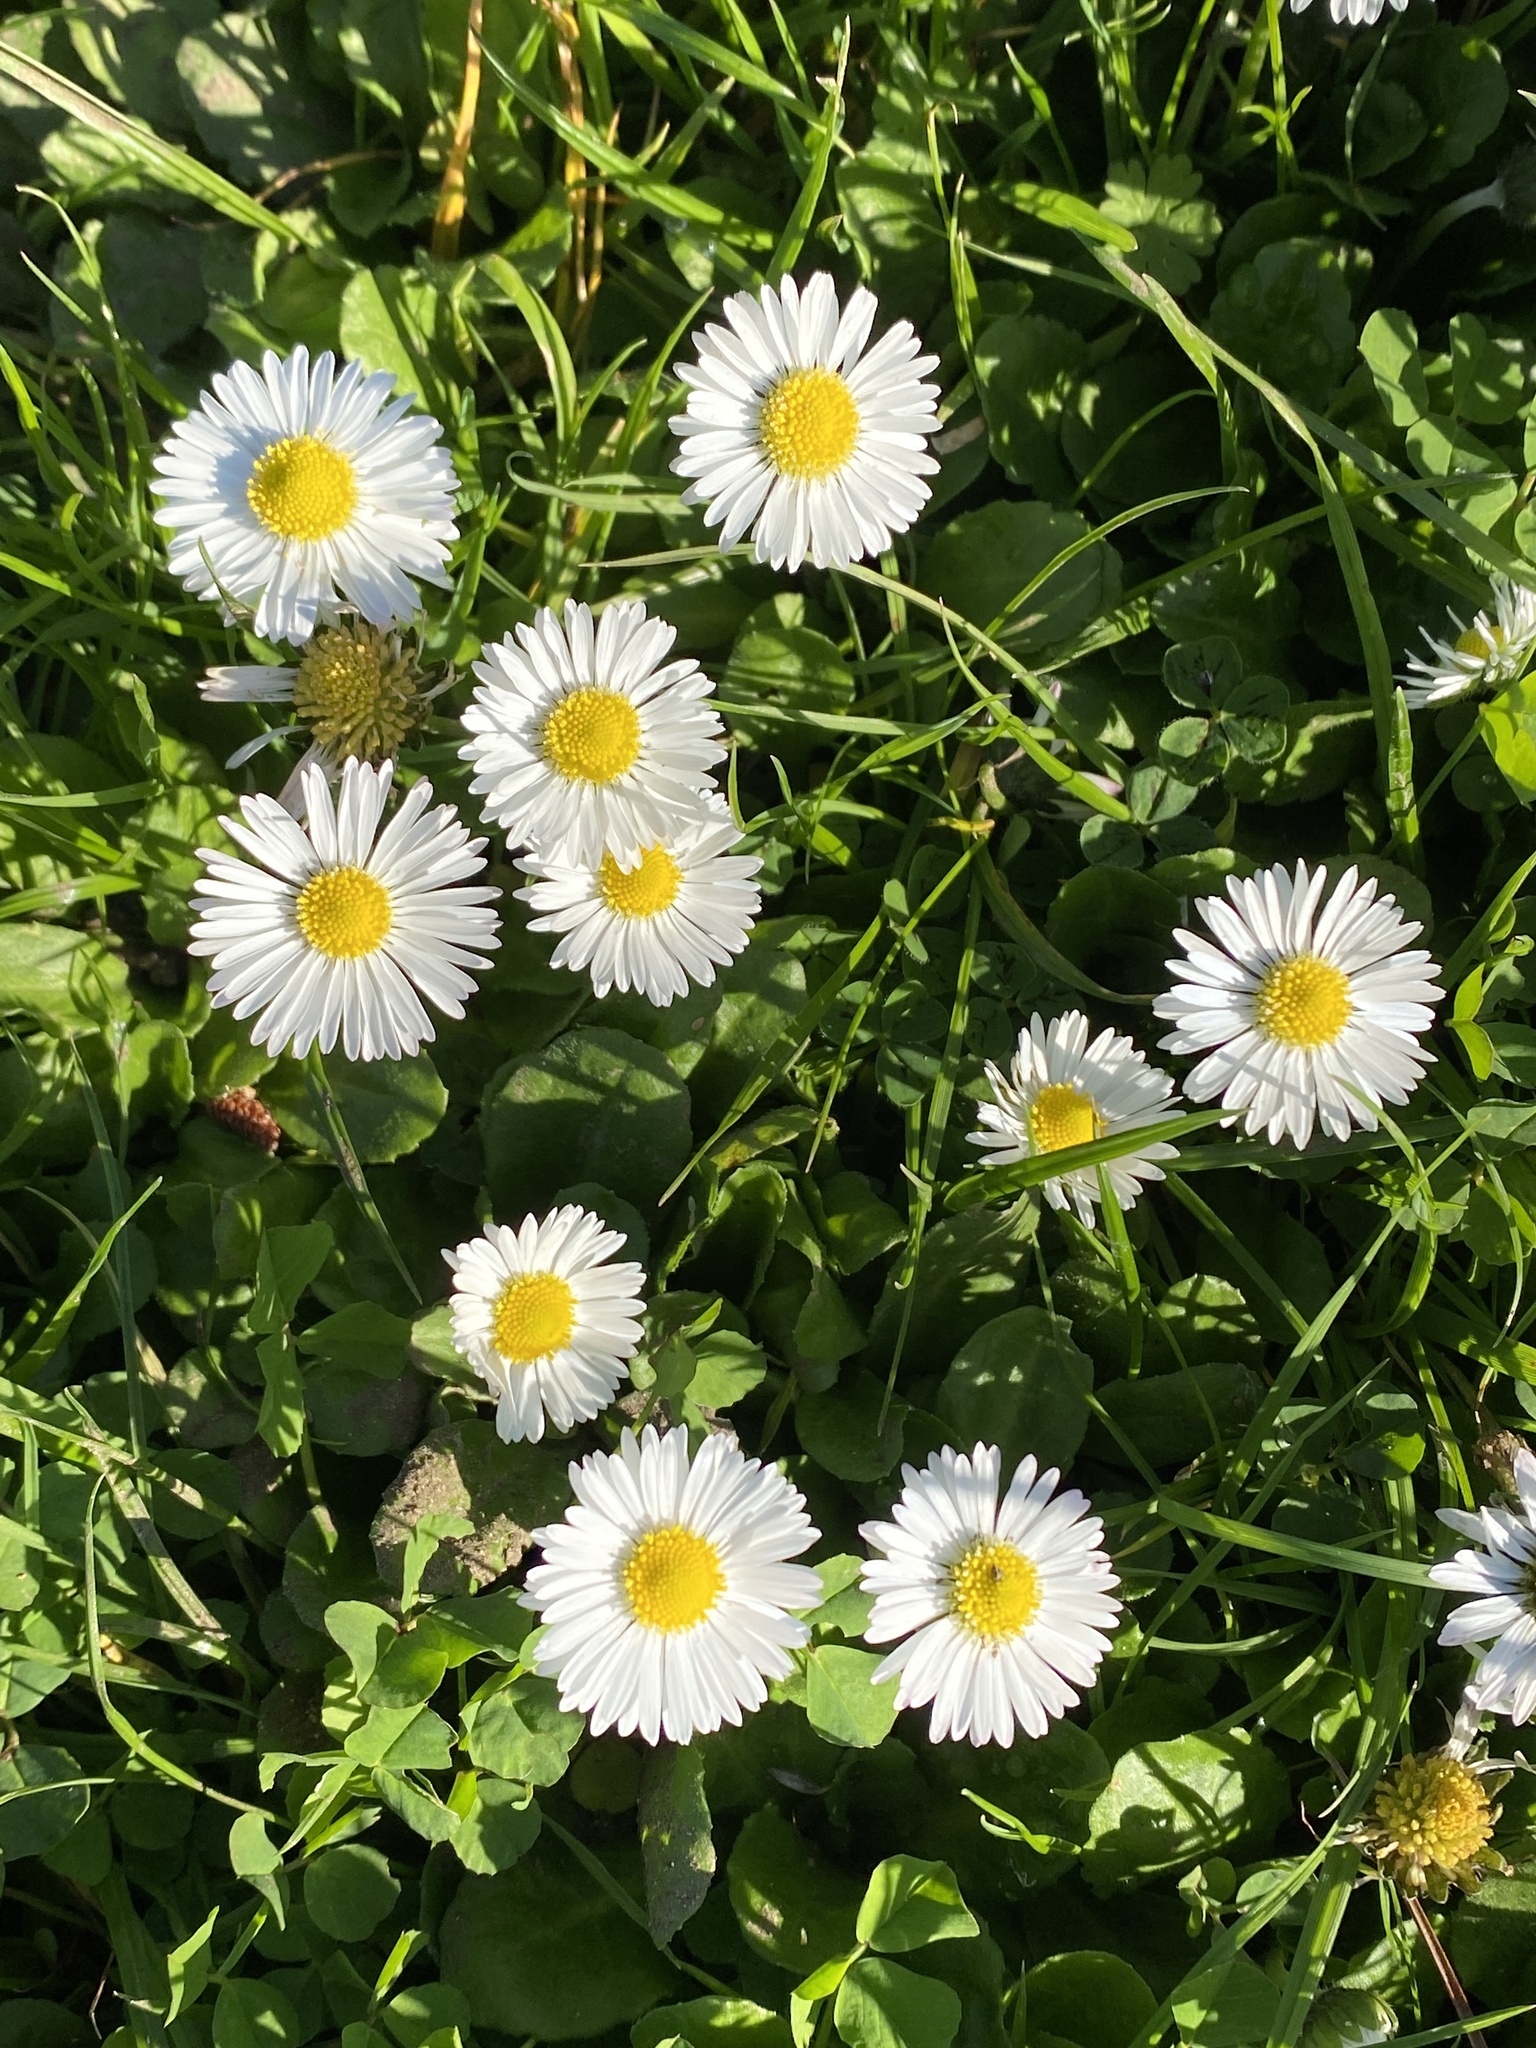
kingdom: Plantae
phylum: Tracheophyta
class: Magnoliopsida
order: Asterales
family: Asteraceae
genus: Bellis
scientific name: Bellis perennis
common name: Lawndaisy
